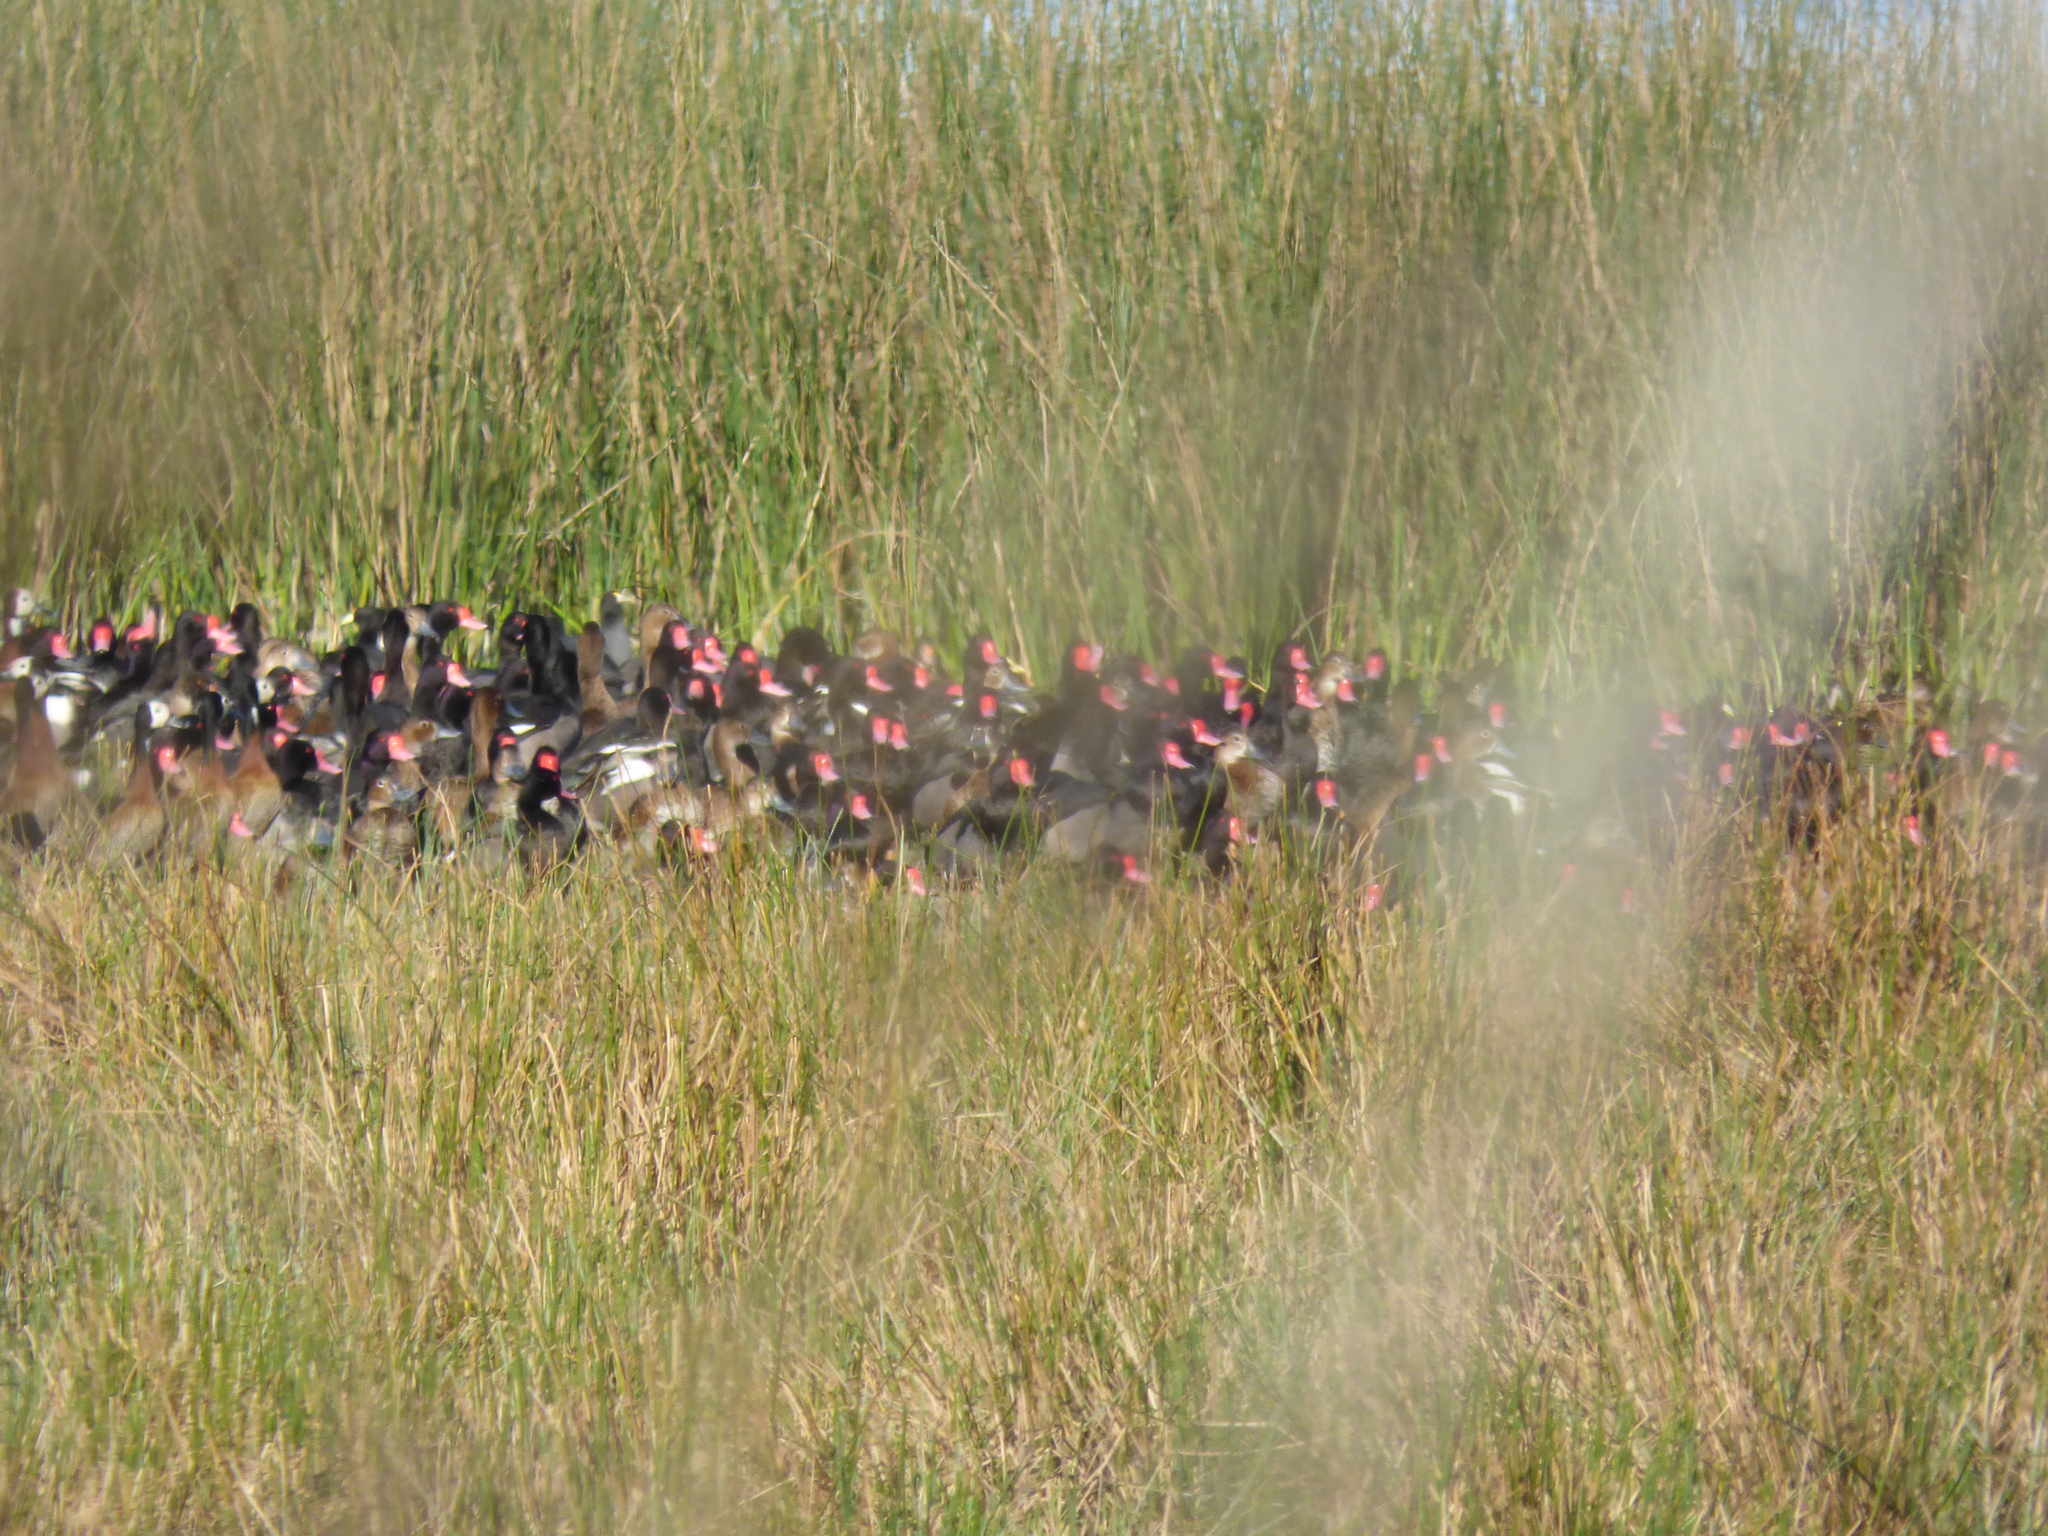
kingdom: Animalia
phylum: Chordata
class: Aves
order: Anseriformes
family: Anatidae
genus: Netta
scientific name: Netta peposaca
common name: Rosy-billed pochard
